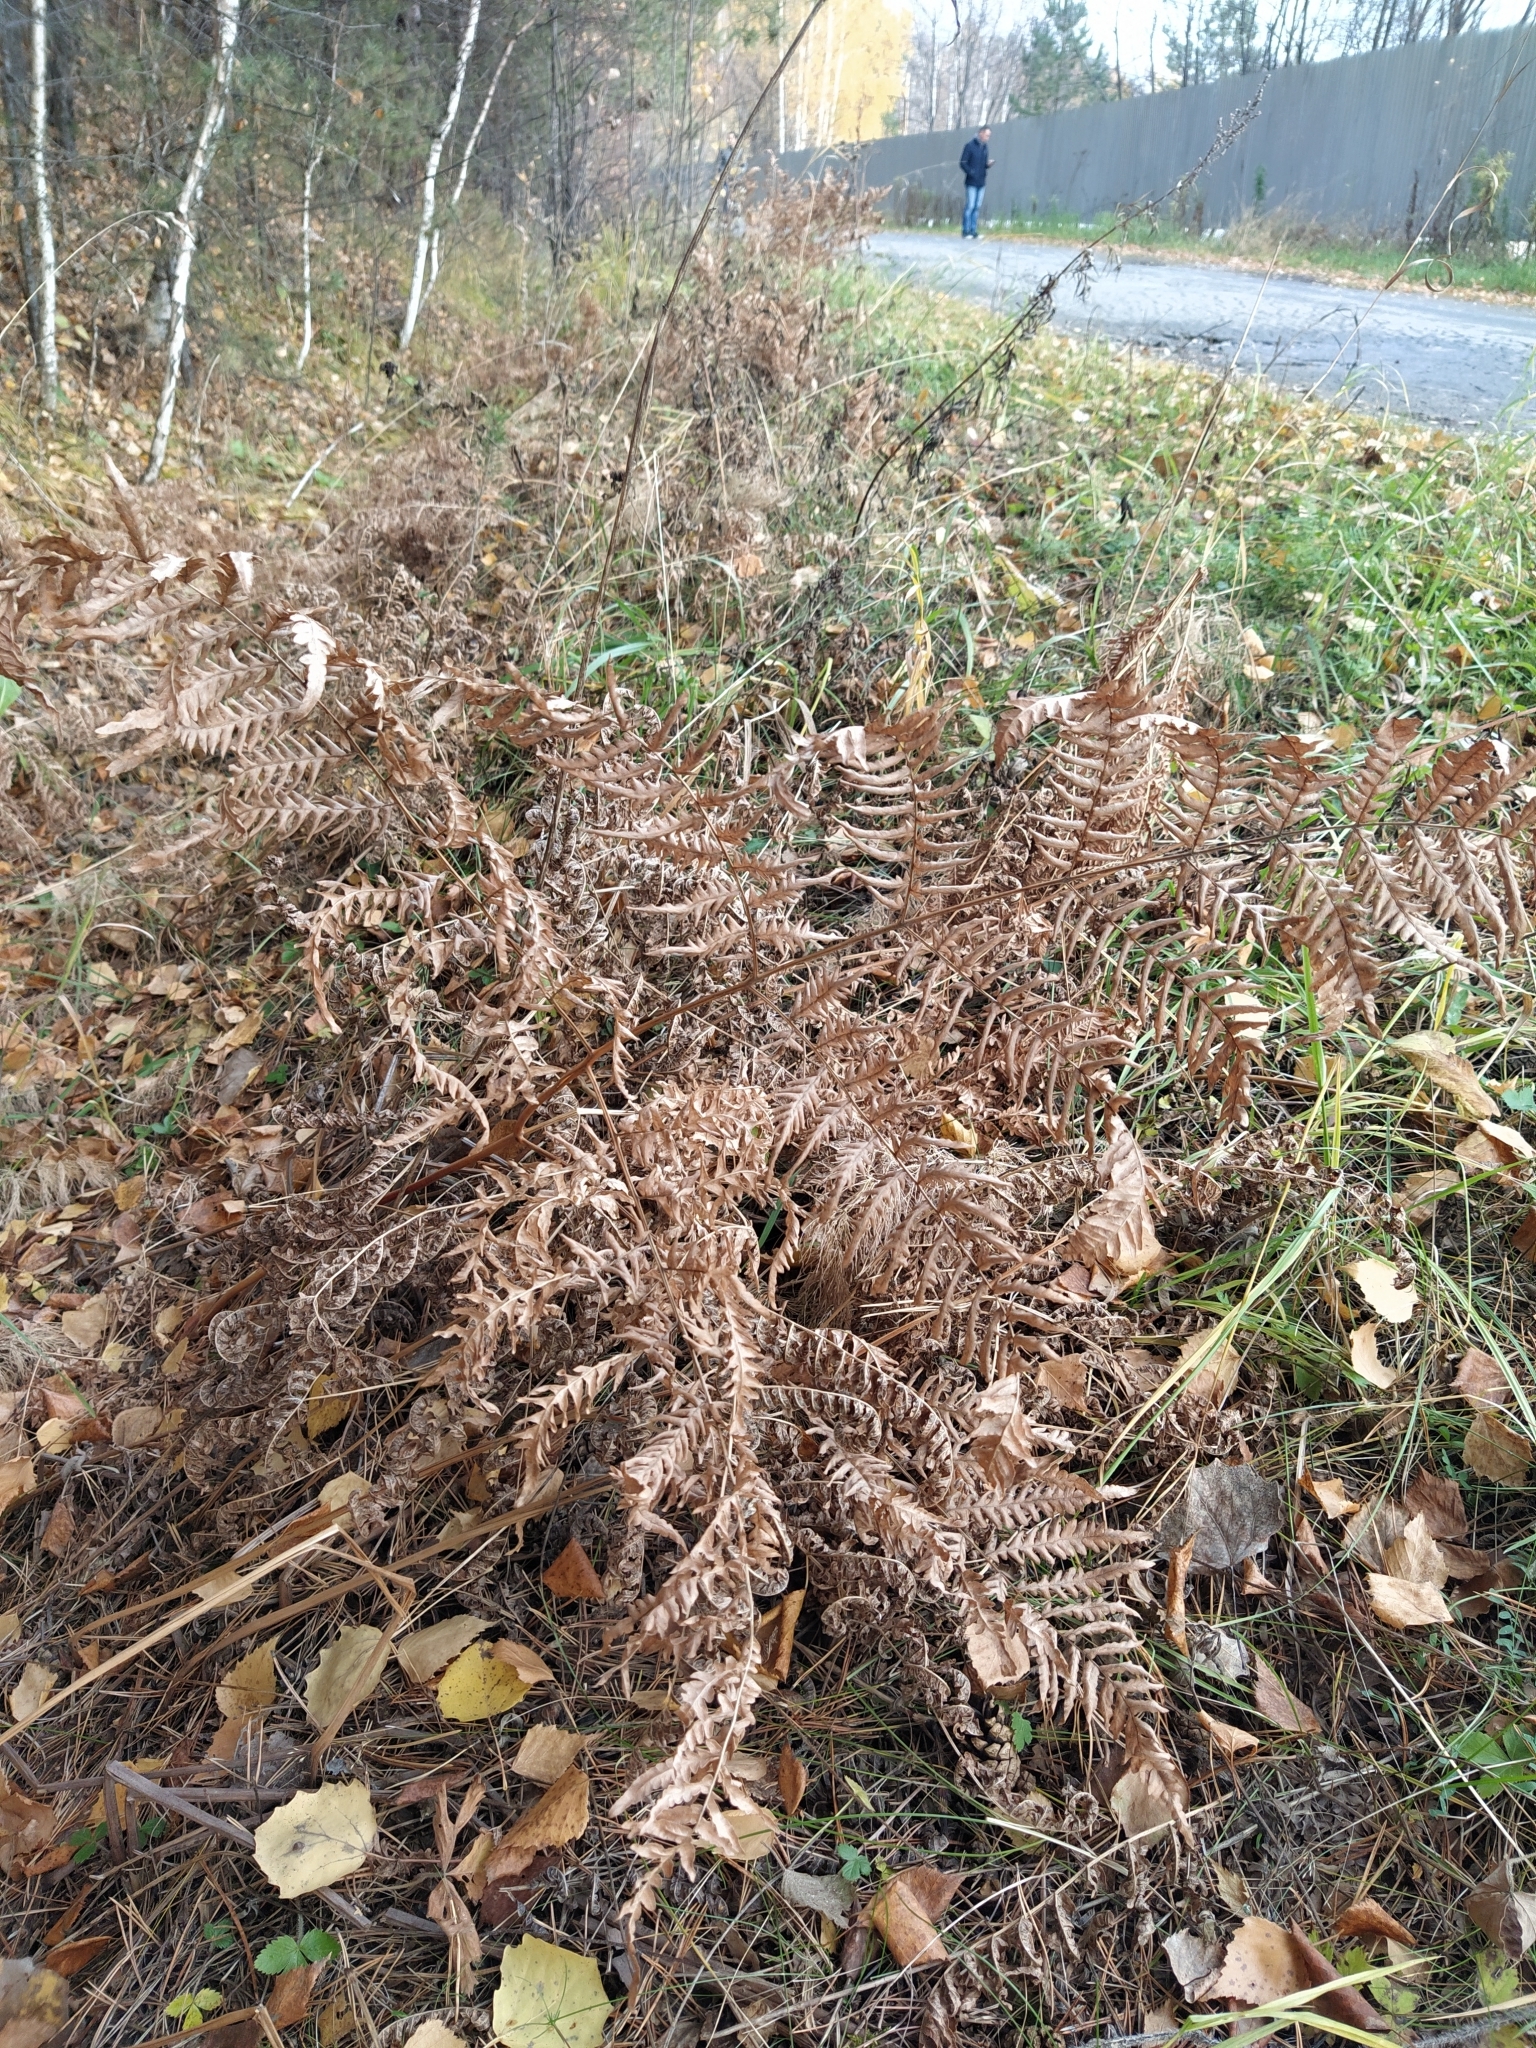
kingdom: Plantae
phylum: Tracheophyta
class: Polypodiopsida
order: Polypodiales
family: Dennstaedtiaceae
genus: Pteridium
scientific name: Pteridium aquilinum
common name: Bracken
